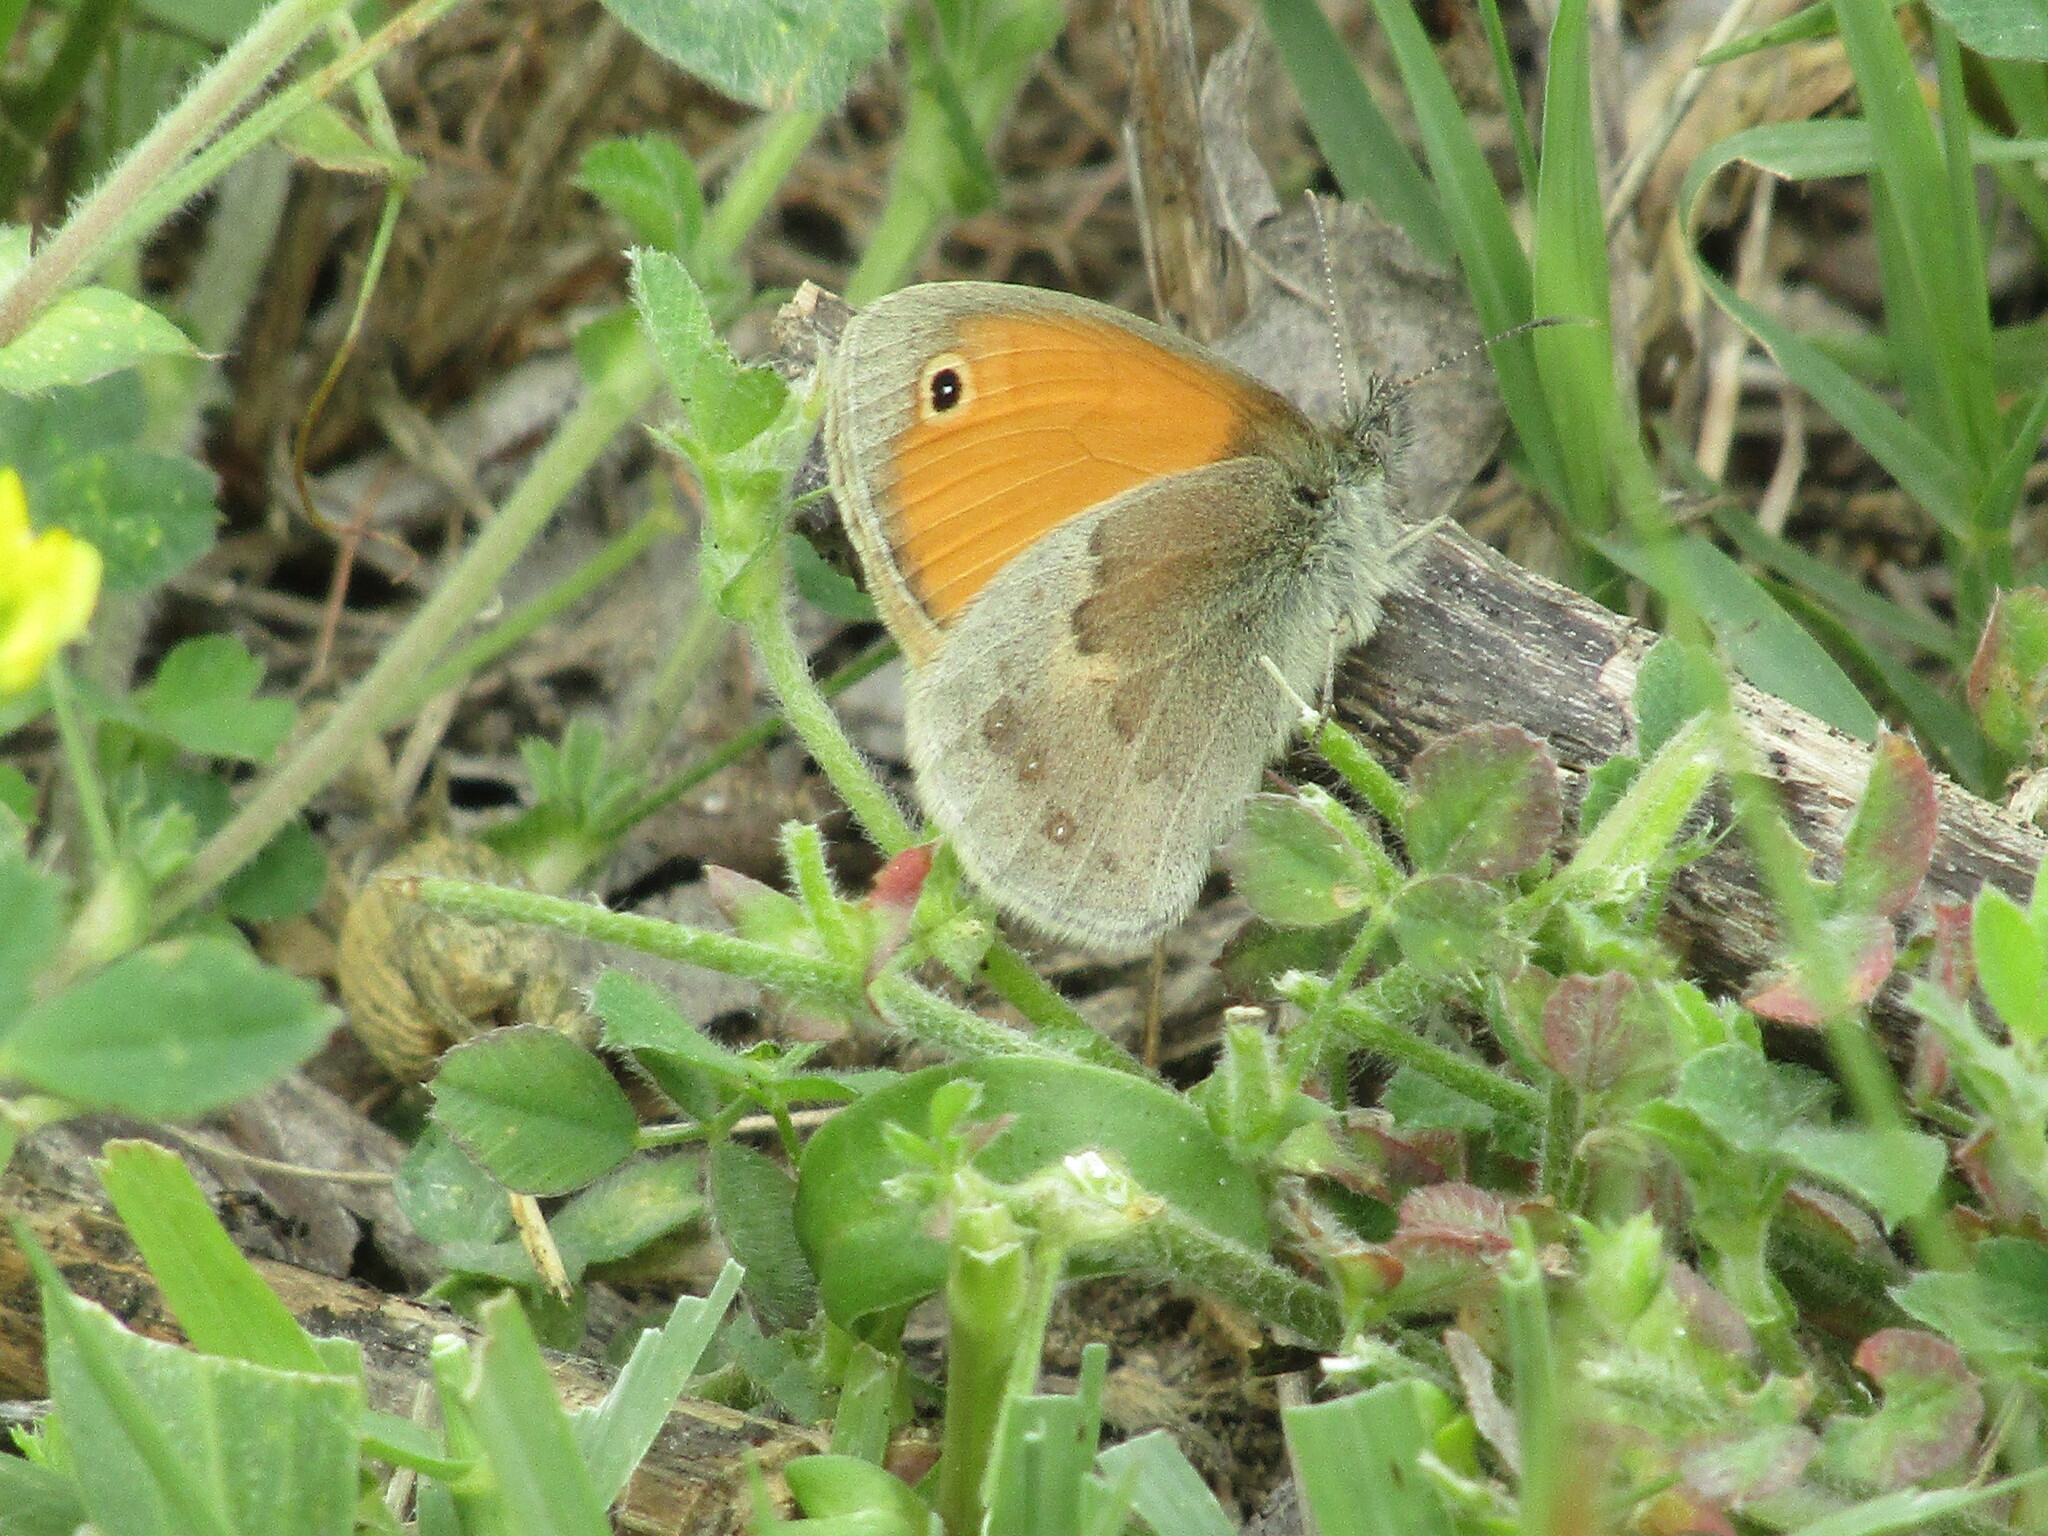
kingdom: Animalia
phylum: Arthropoda
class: Insecta
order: Lepidoptera
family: Nymphalidae
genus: Coenonympha
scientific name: Coenonympha pamphilus
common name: Small heath
